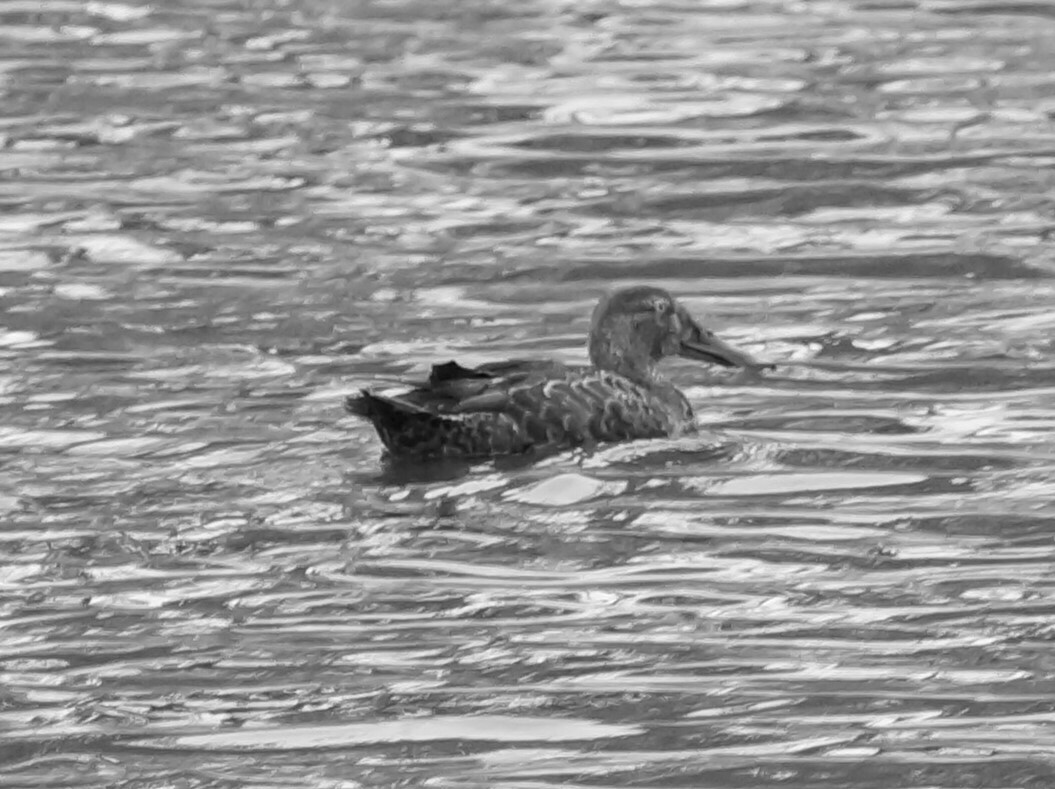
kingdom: Animalia
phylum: Chordata
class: Aves
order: Anseriformes
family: Anatidae
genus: Spatula
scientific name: Spatula rhynchotis
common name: Australian shoveler
